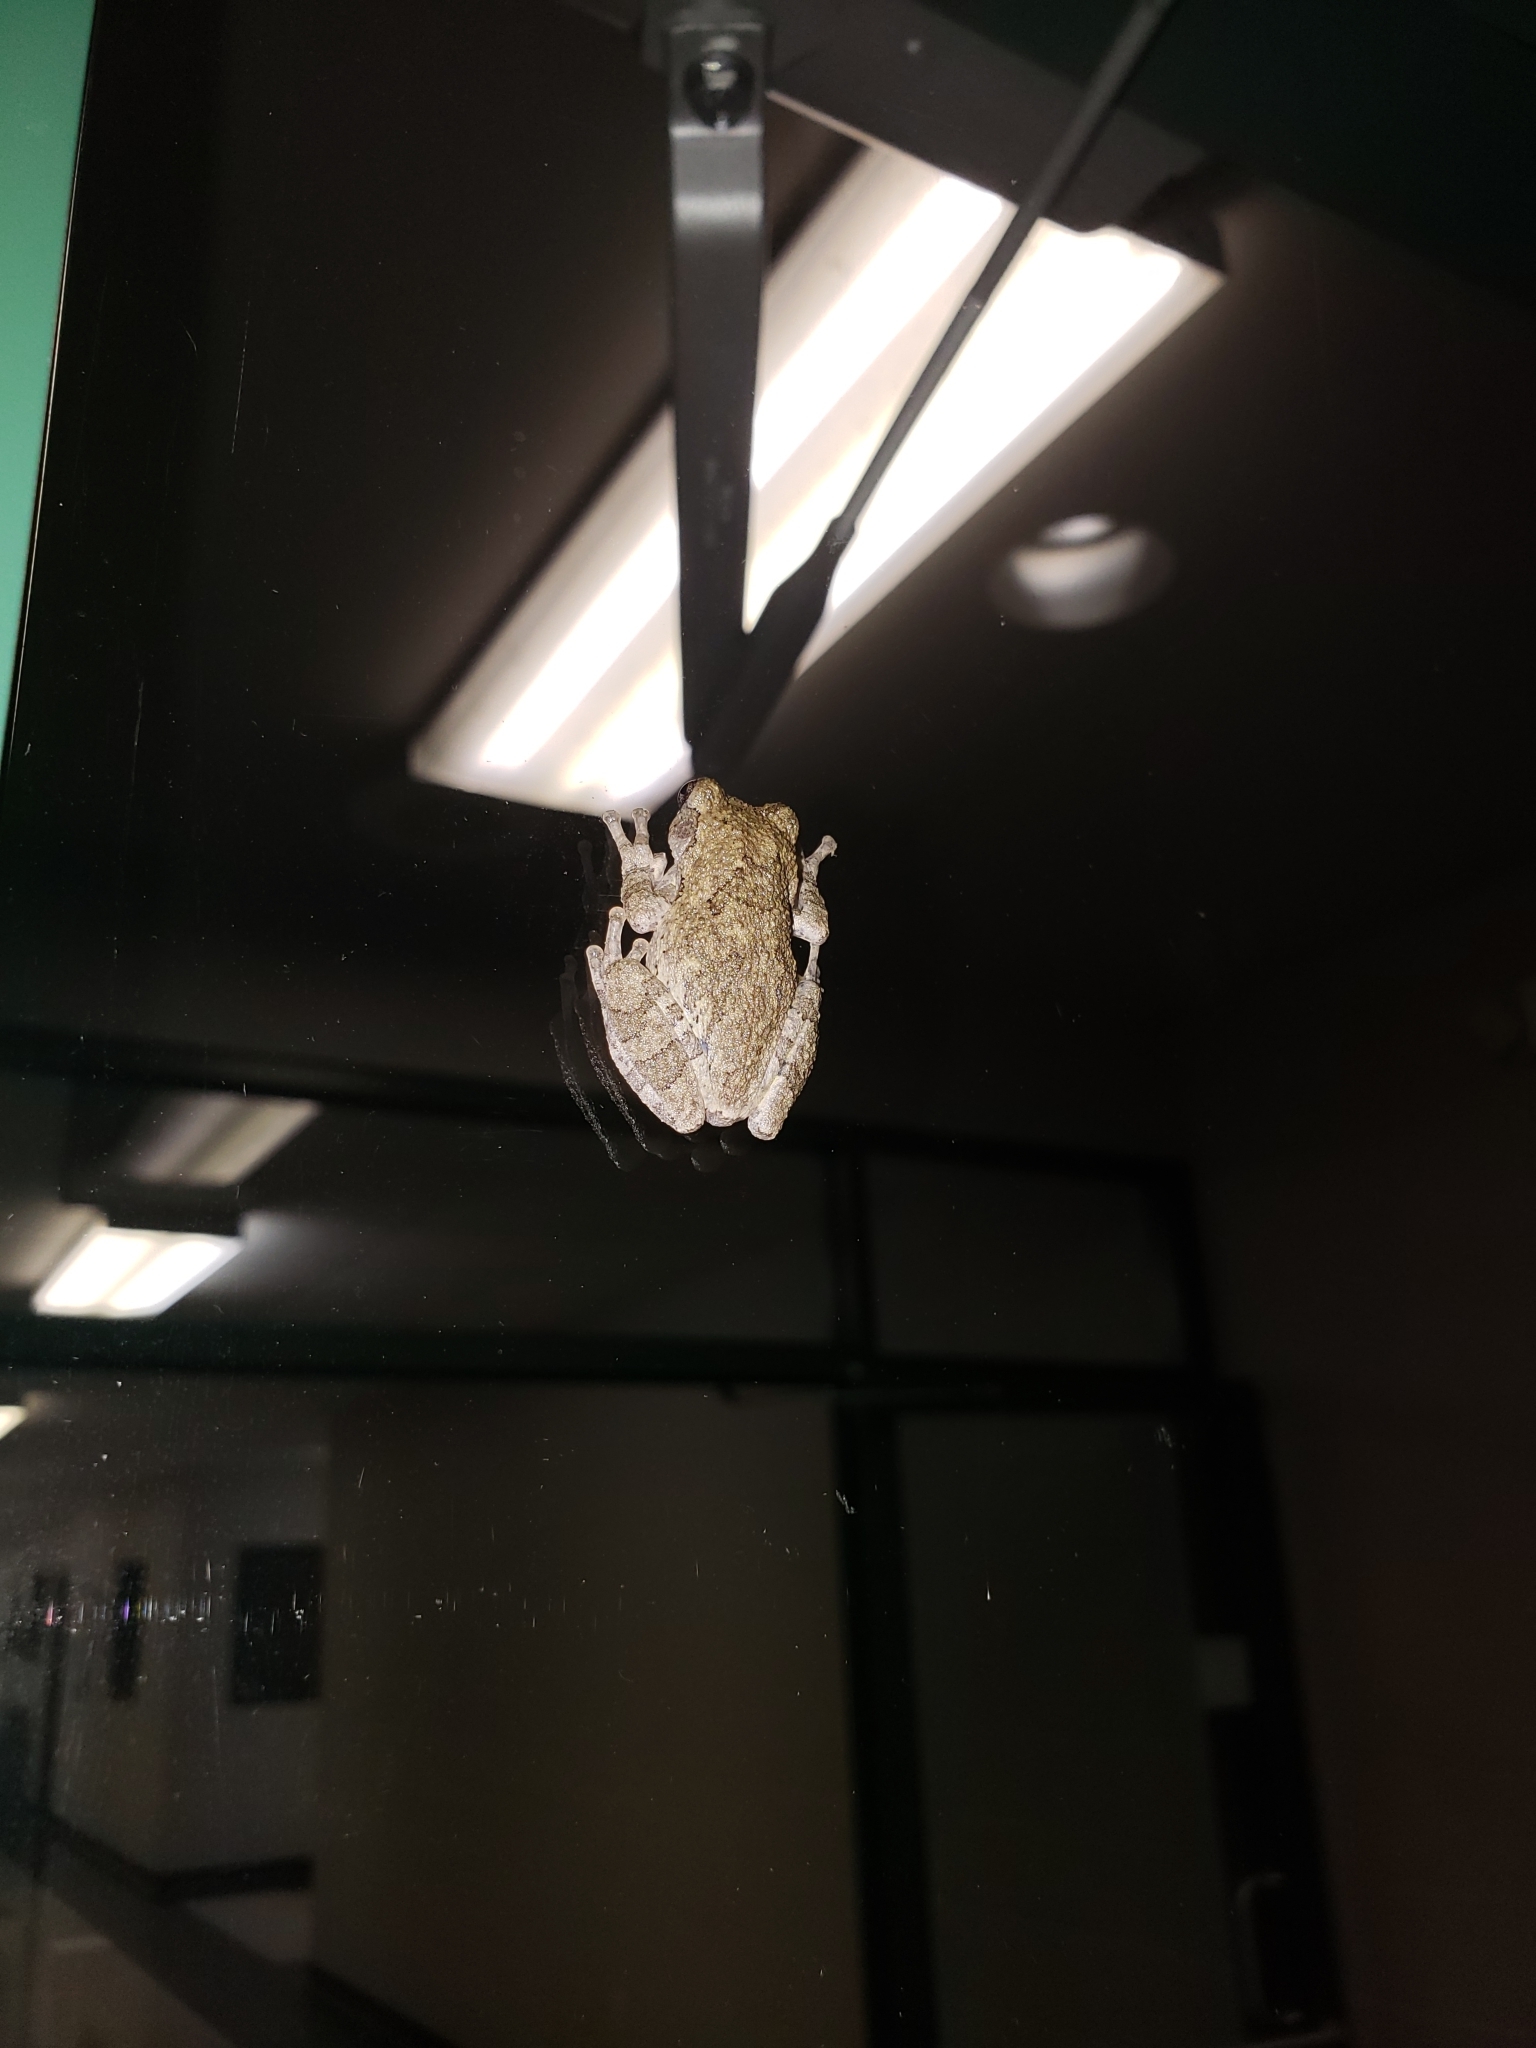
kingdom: Animalia
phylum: Chordata
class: Amphibia
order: Anura
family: Hylidae
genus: Dryophytes
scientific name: Dryophytes chrysoscelis
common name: Cope's gray treefrog
